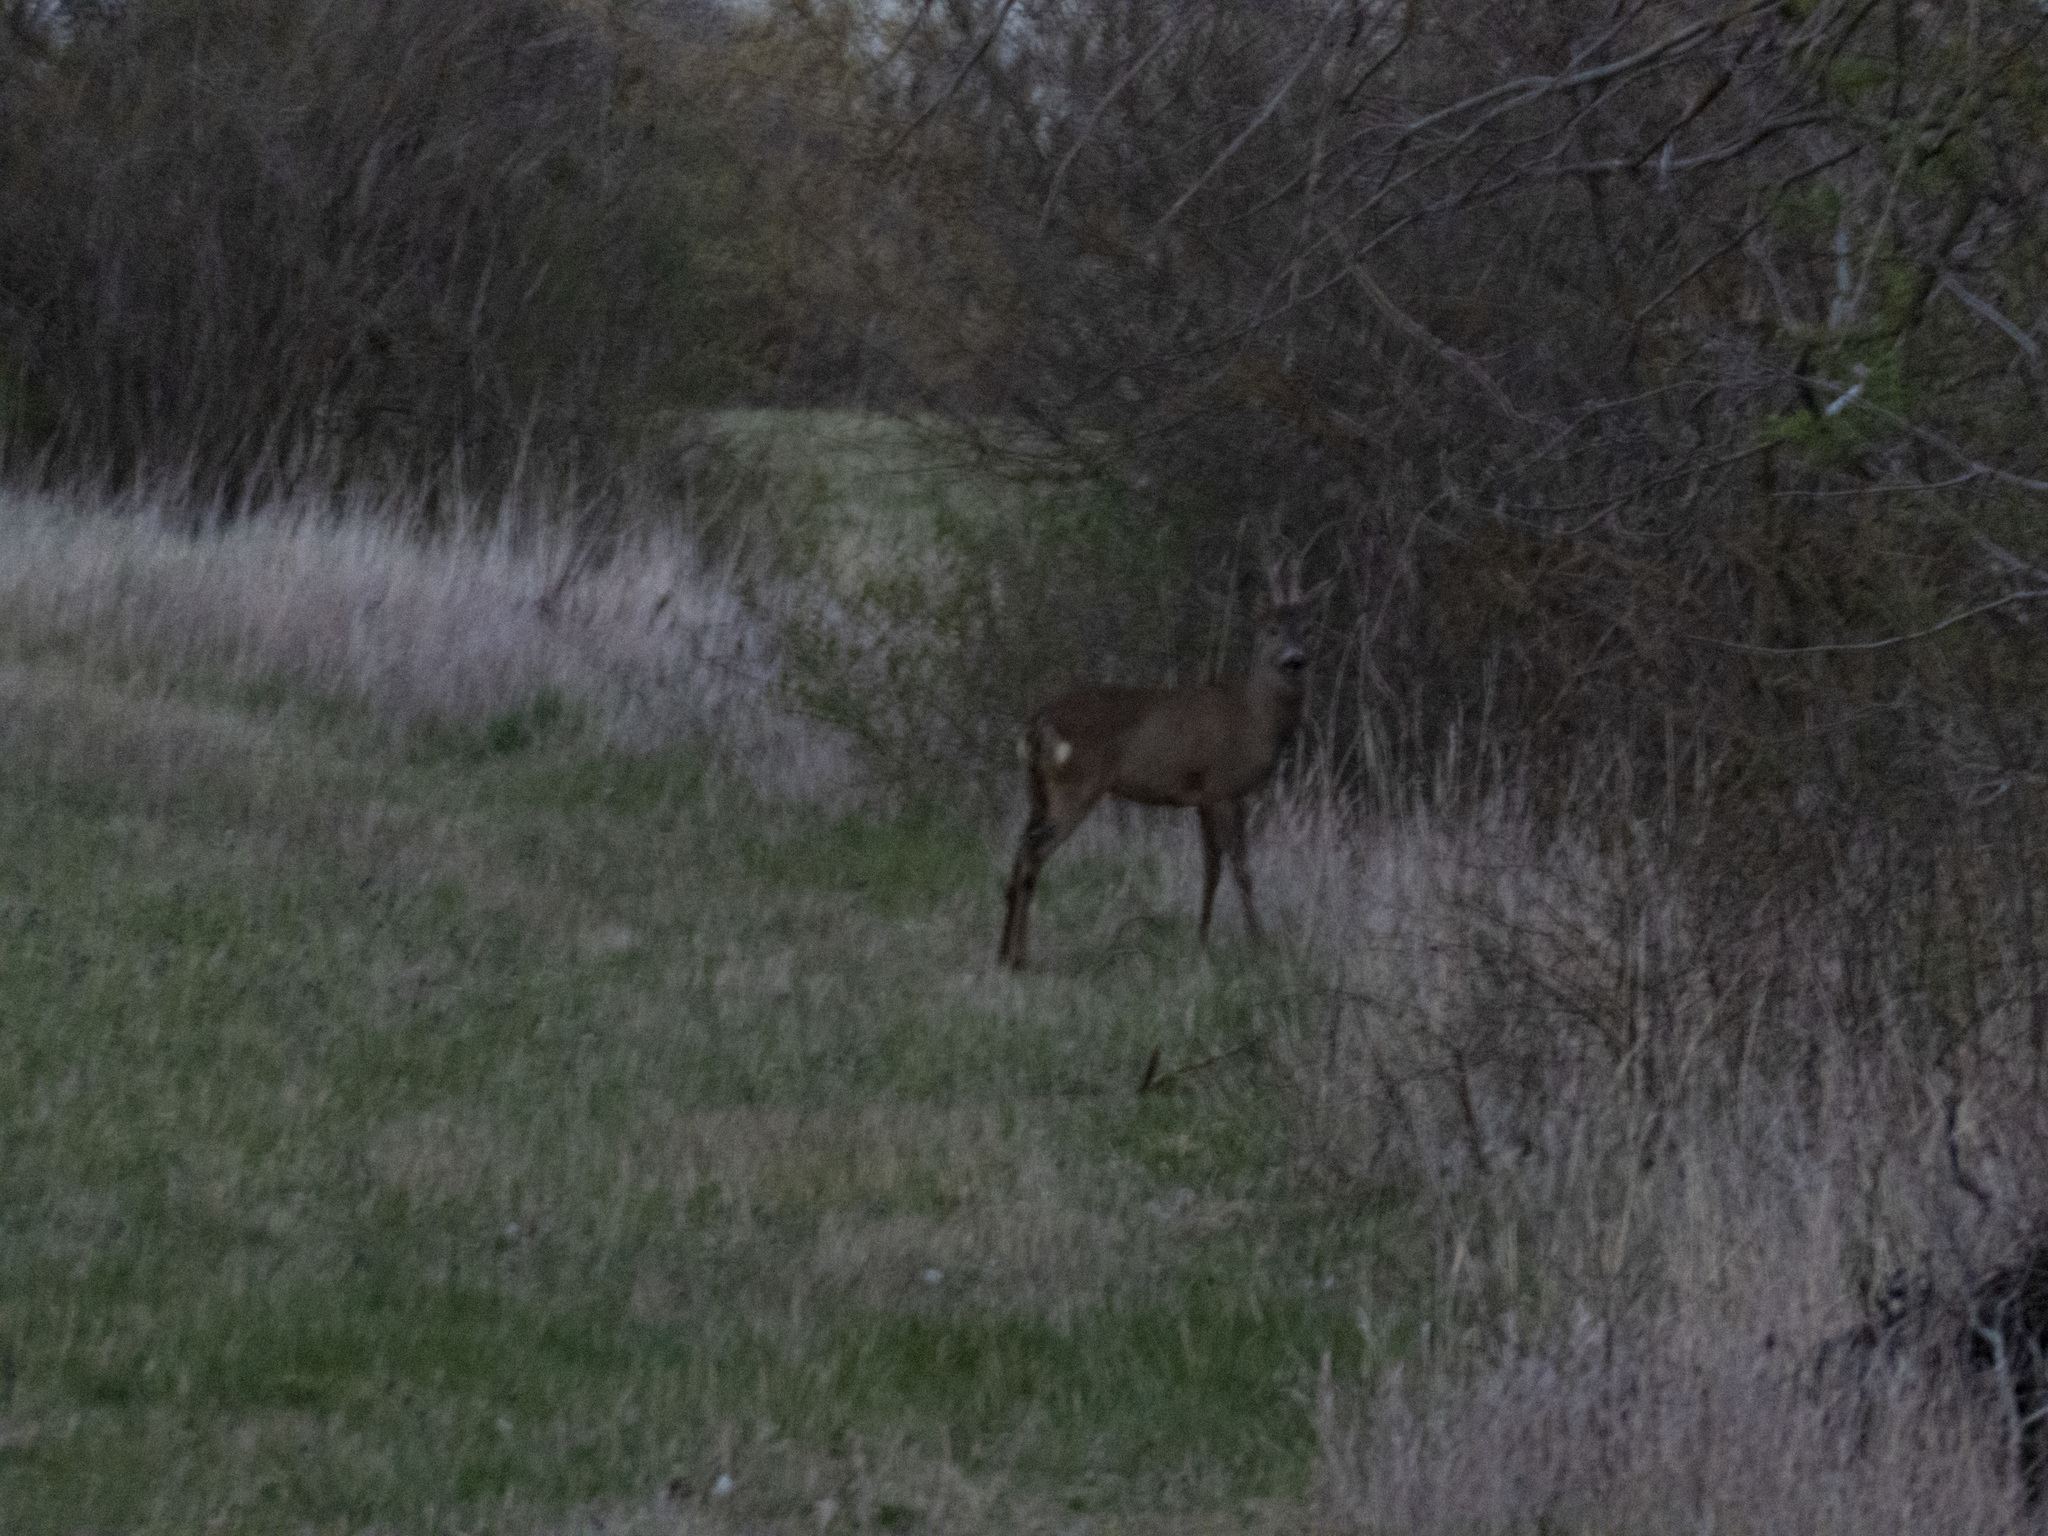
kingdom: Animalia
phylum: Chordata
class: Mammalia
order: Artiodactyla
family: Cervidae
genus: Capreolus
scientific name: Capreolus capreolus
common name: Western roe deer
